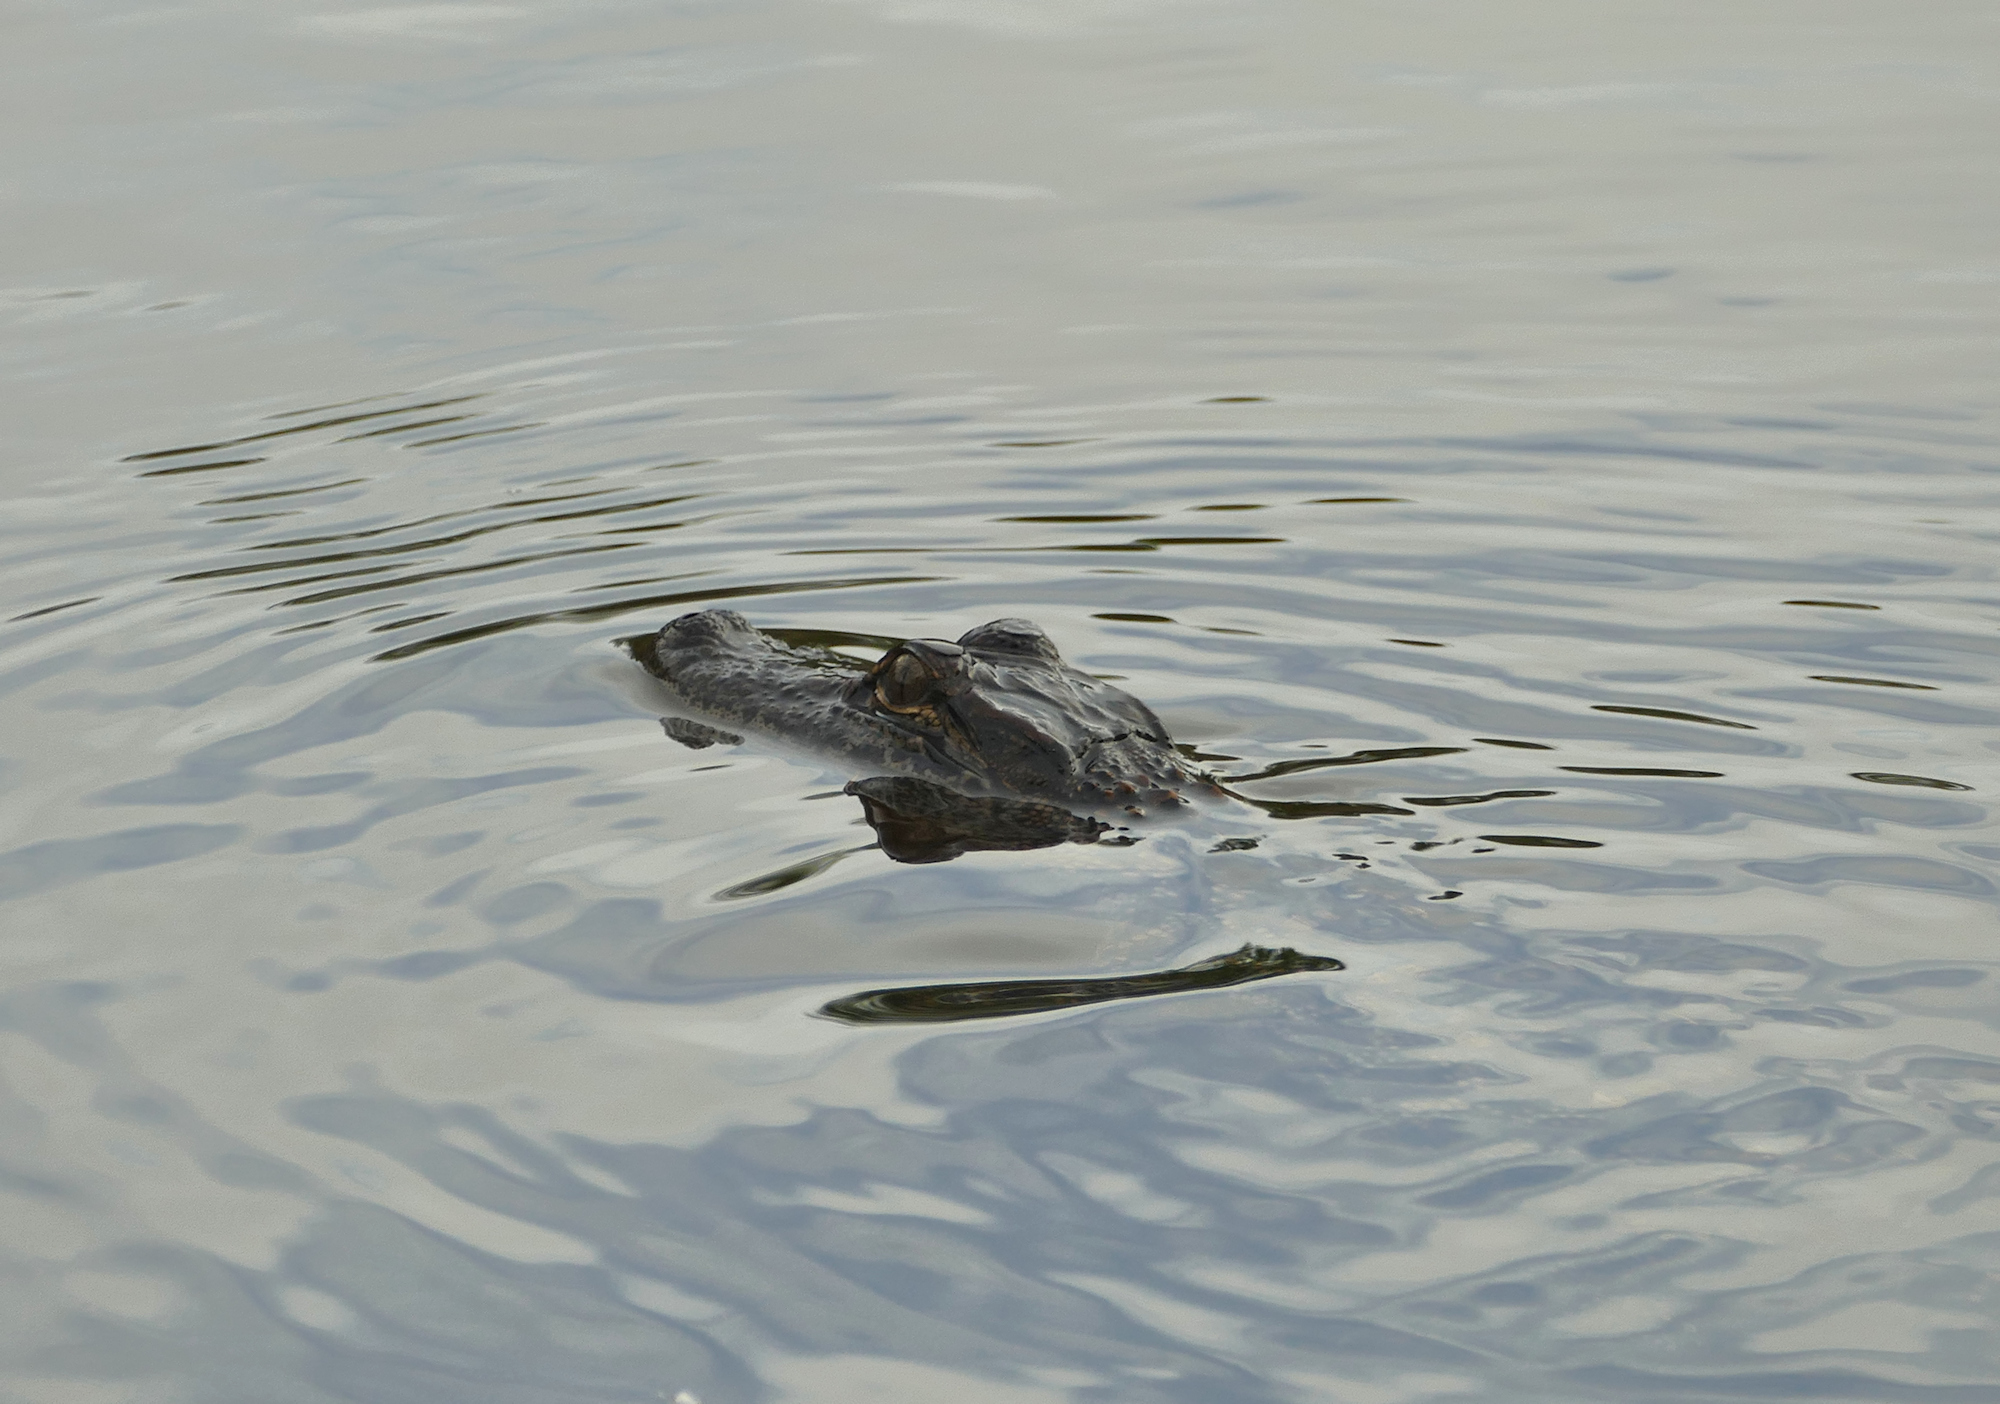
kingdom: Animalia
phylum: Chordata
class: Crocodylia
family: Alligatoridae
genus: Alligator
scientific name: Alligator mississippiensis
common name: American alligator
